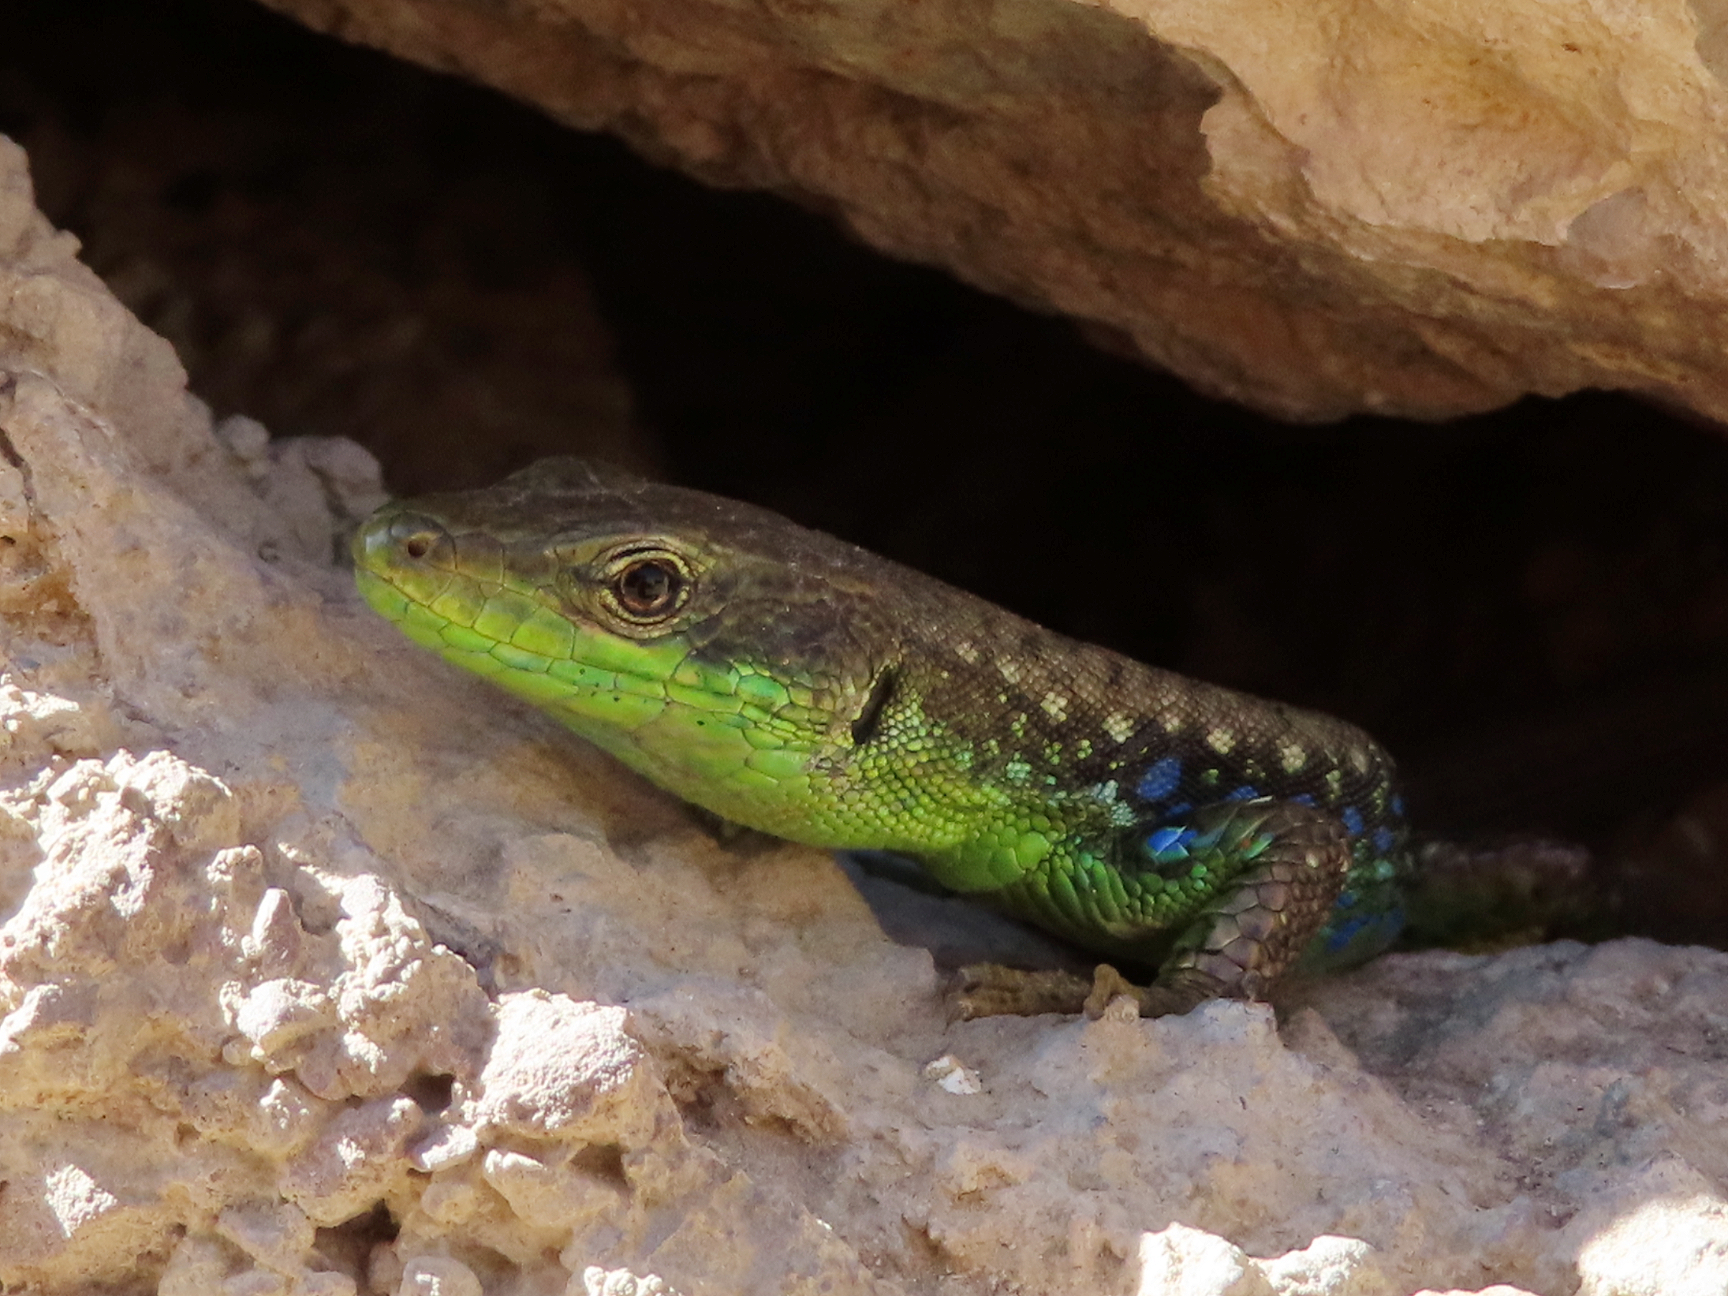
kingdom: Animalia
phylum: Chordata
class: Squamata
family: Lacertidae
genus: Darevskia
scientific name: Darevskia raddei
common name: Radde's lizard
